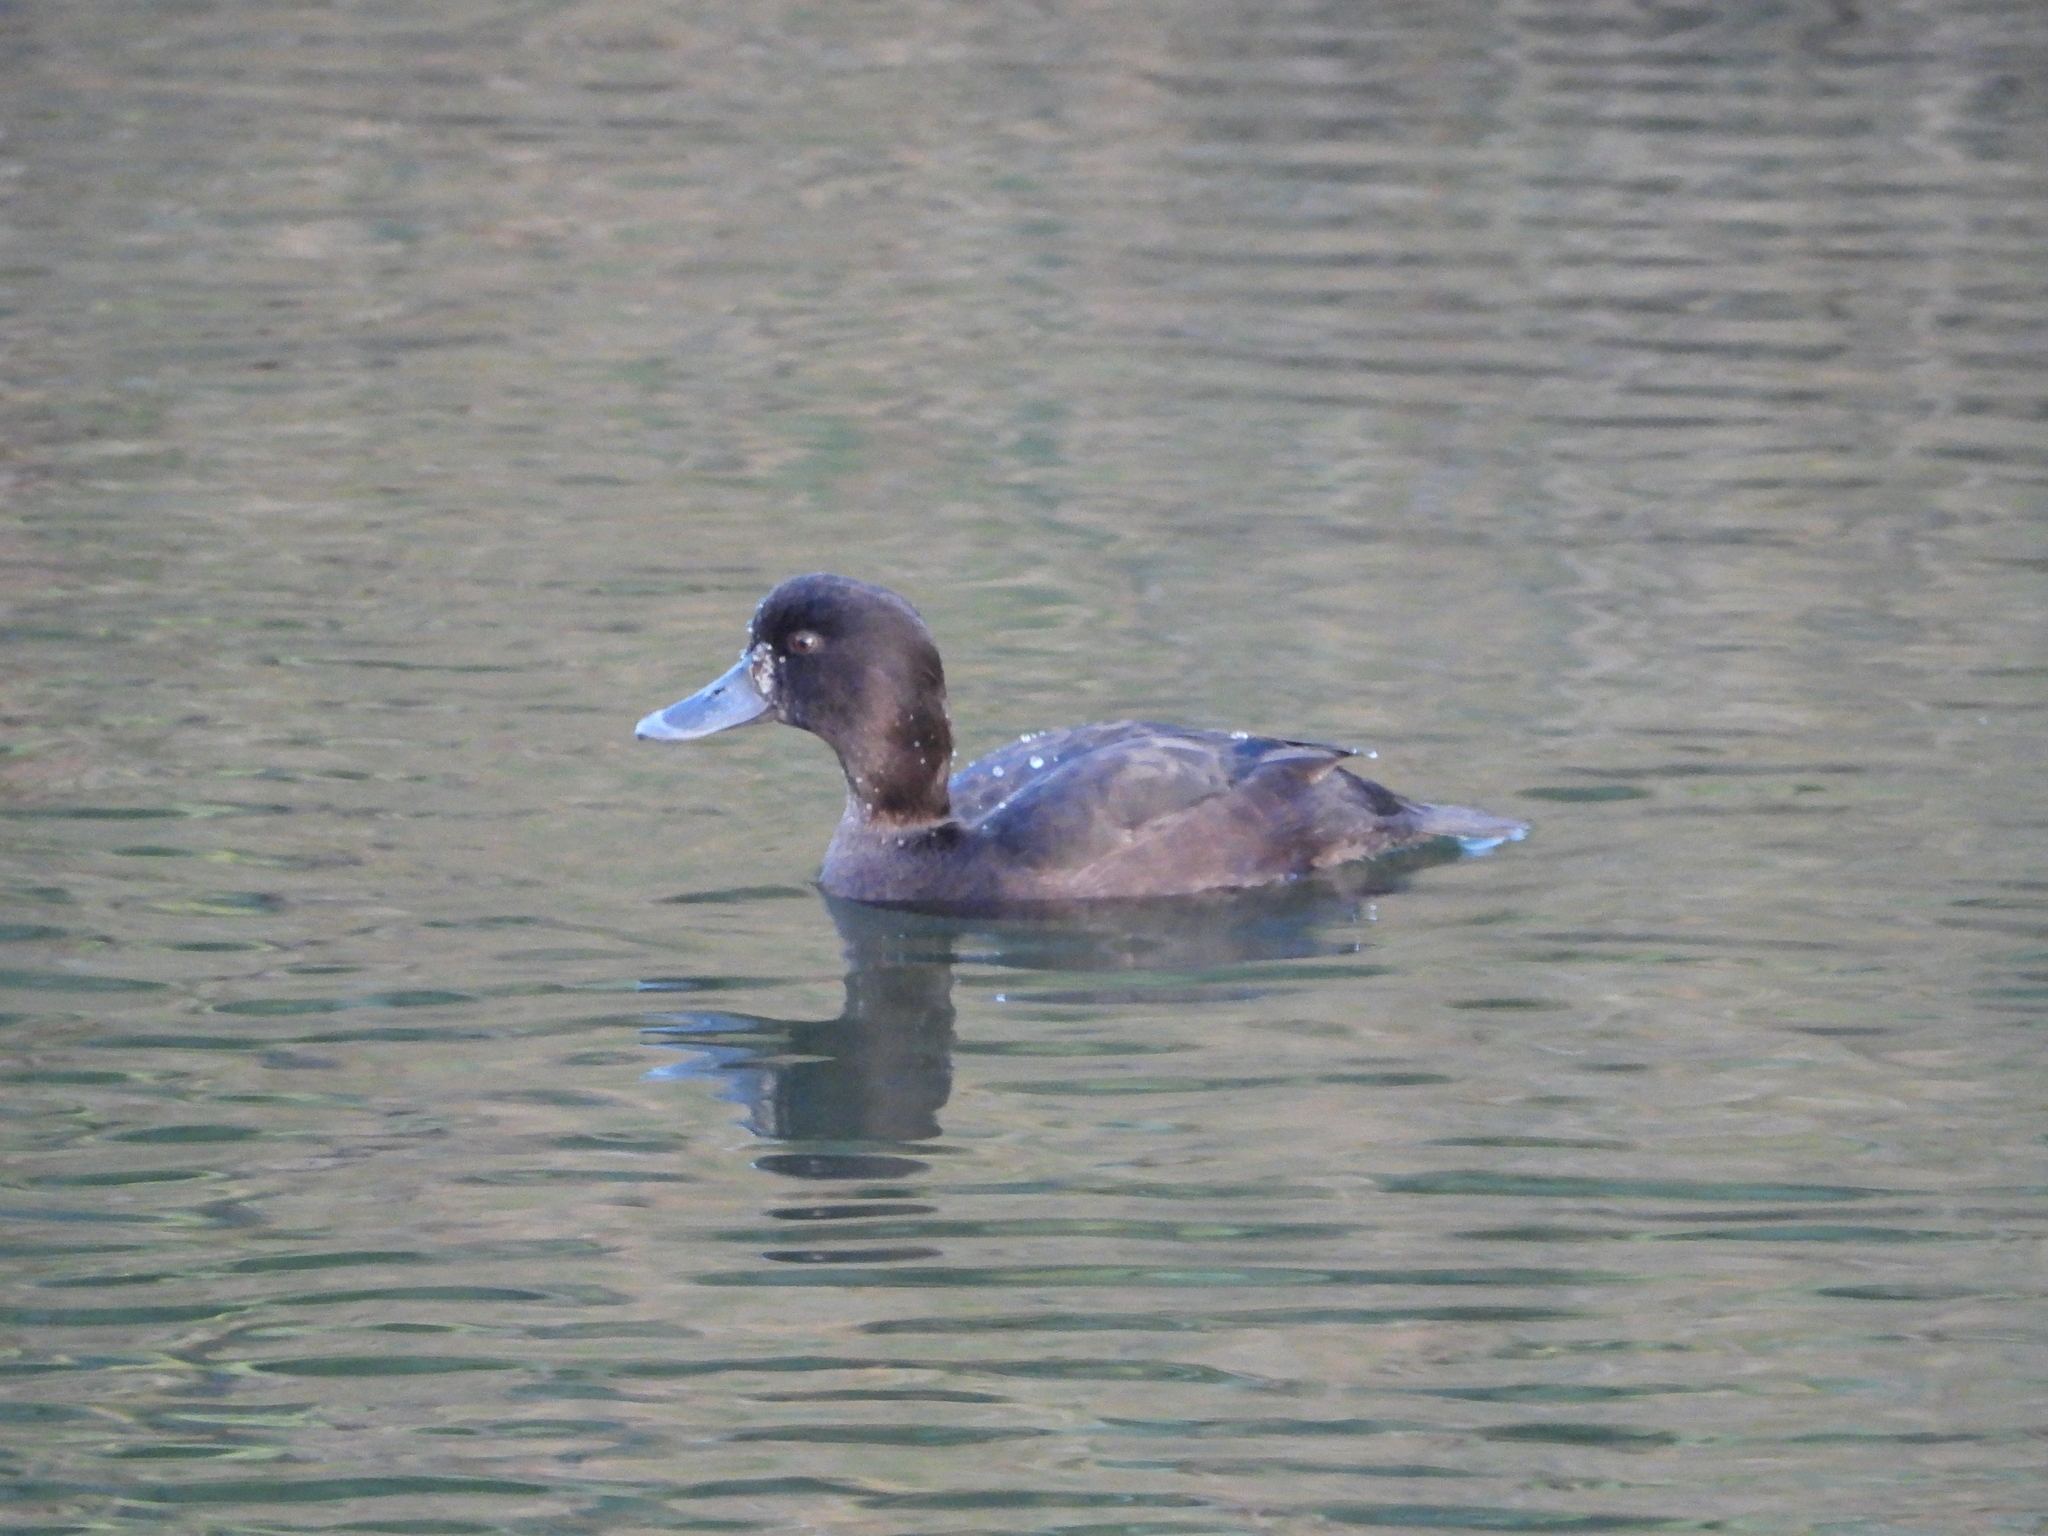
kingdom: Animalia
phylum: Chordata
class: Aves
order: Anseriformes
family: Anatidae
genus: Aythya
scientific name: Aythya novaeseelandiae
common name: New zealand scaup
